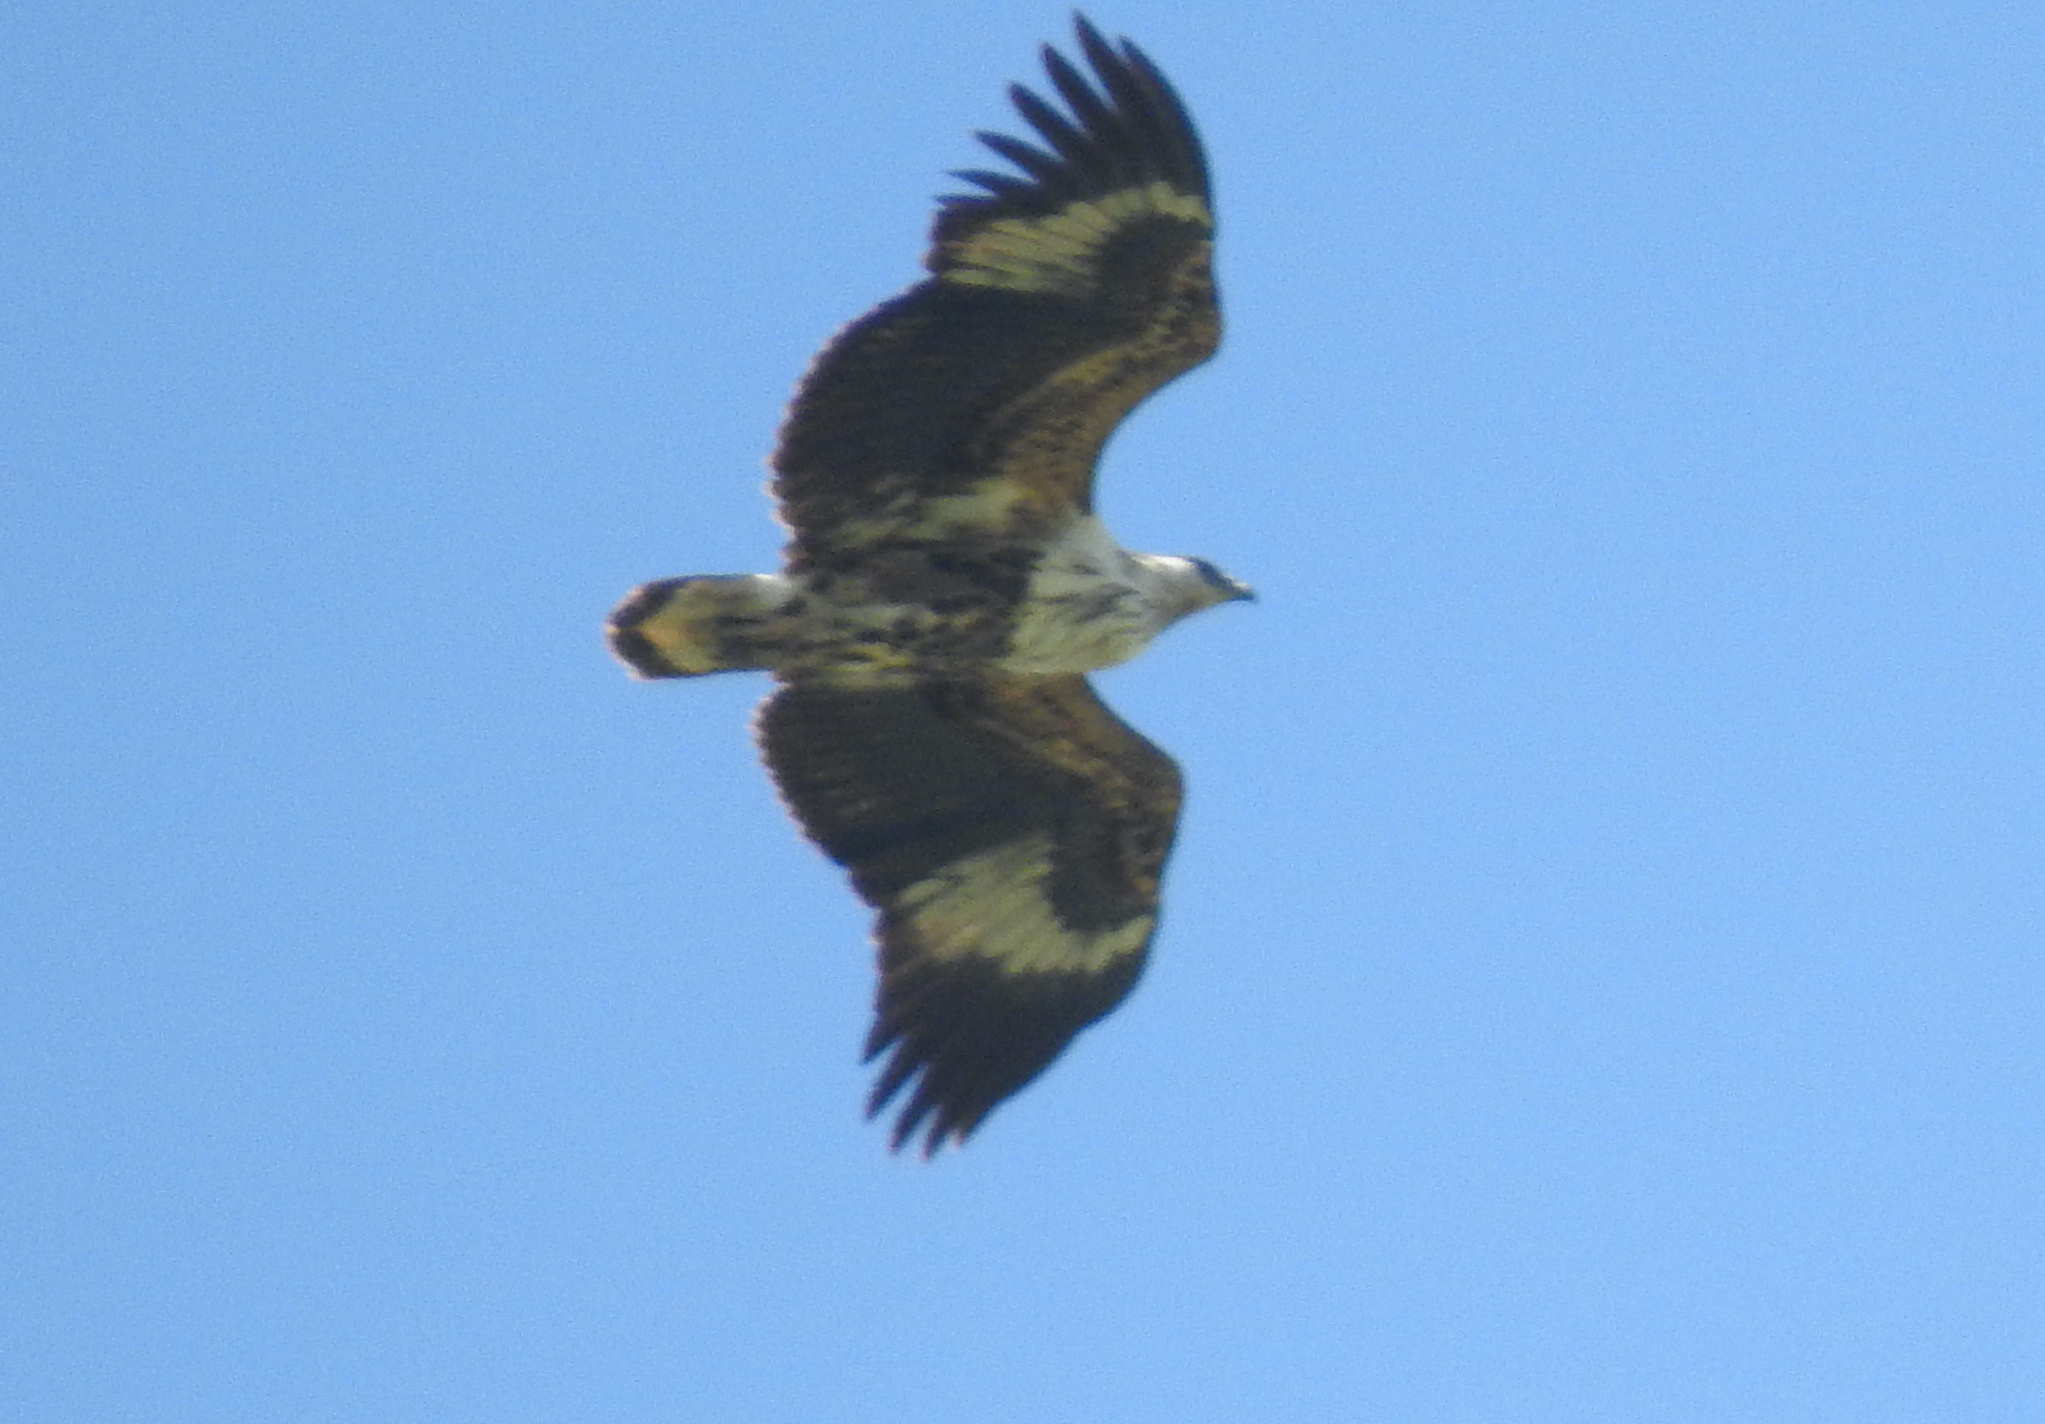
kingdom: Animalia
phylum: Chordata
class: Aves
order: Accipitriformes
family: Accipitridae
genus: Haliaeetus
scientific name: Haliaeetus vocifer
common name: African fish eagle
